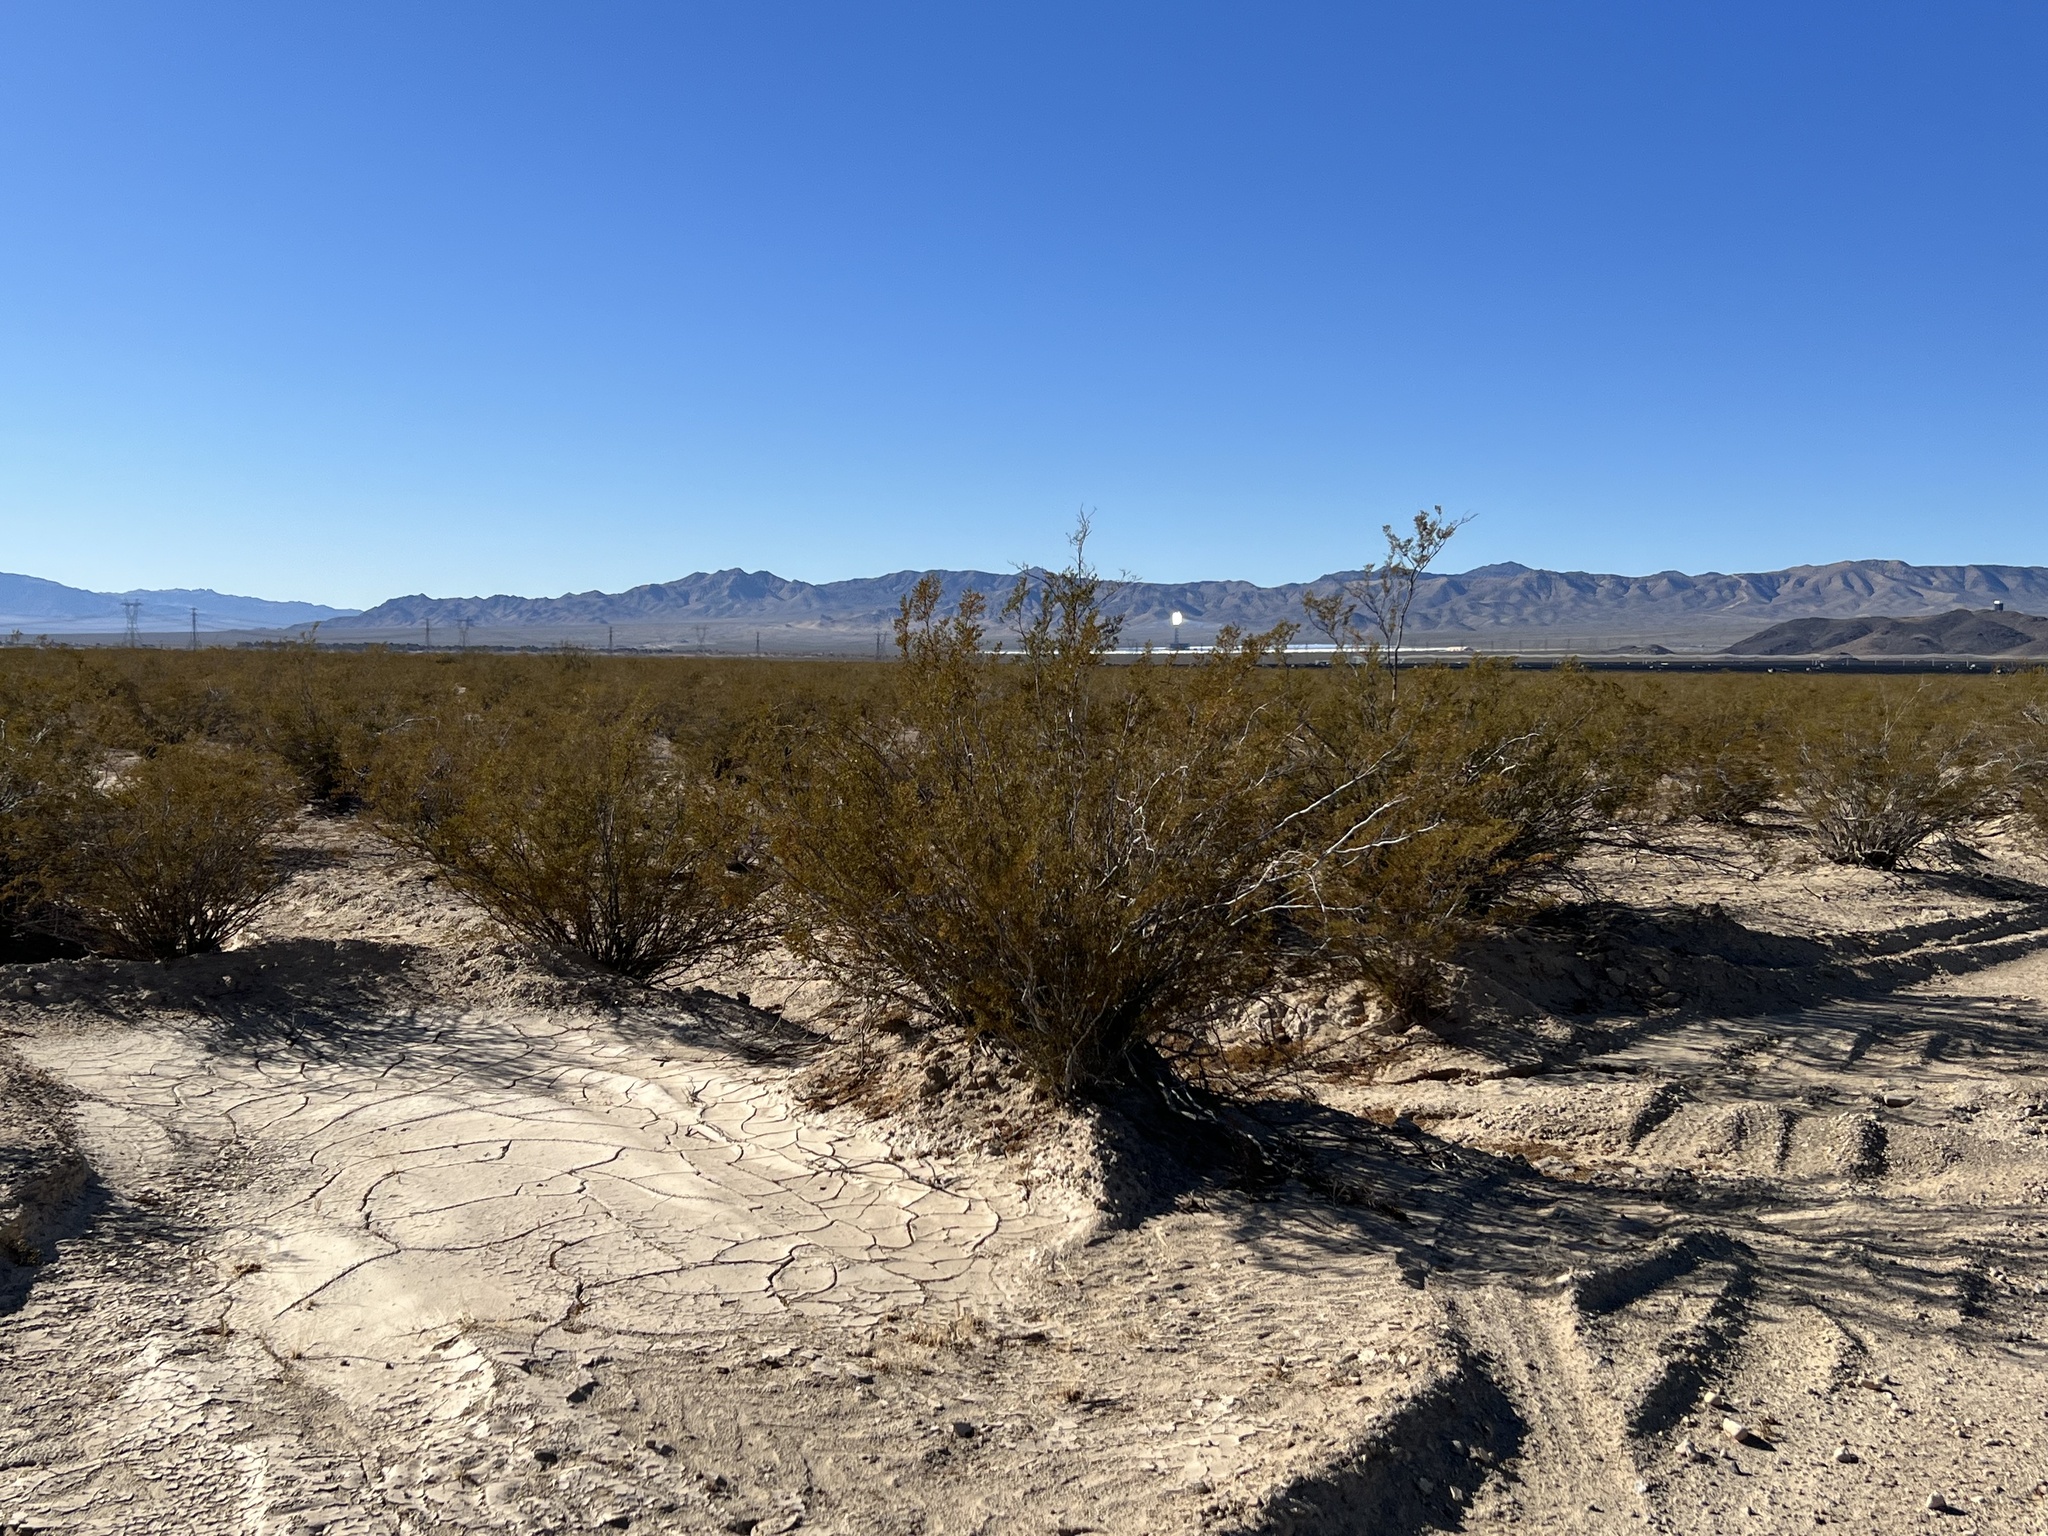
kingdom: Plantae
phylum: Tracheophyta
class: Magnoliopsida
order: Zygophyllales
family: Zygophyllaceae
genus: Larrea
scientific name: Larrea tridentata
